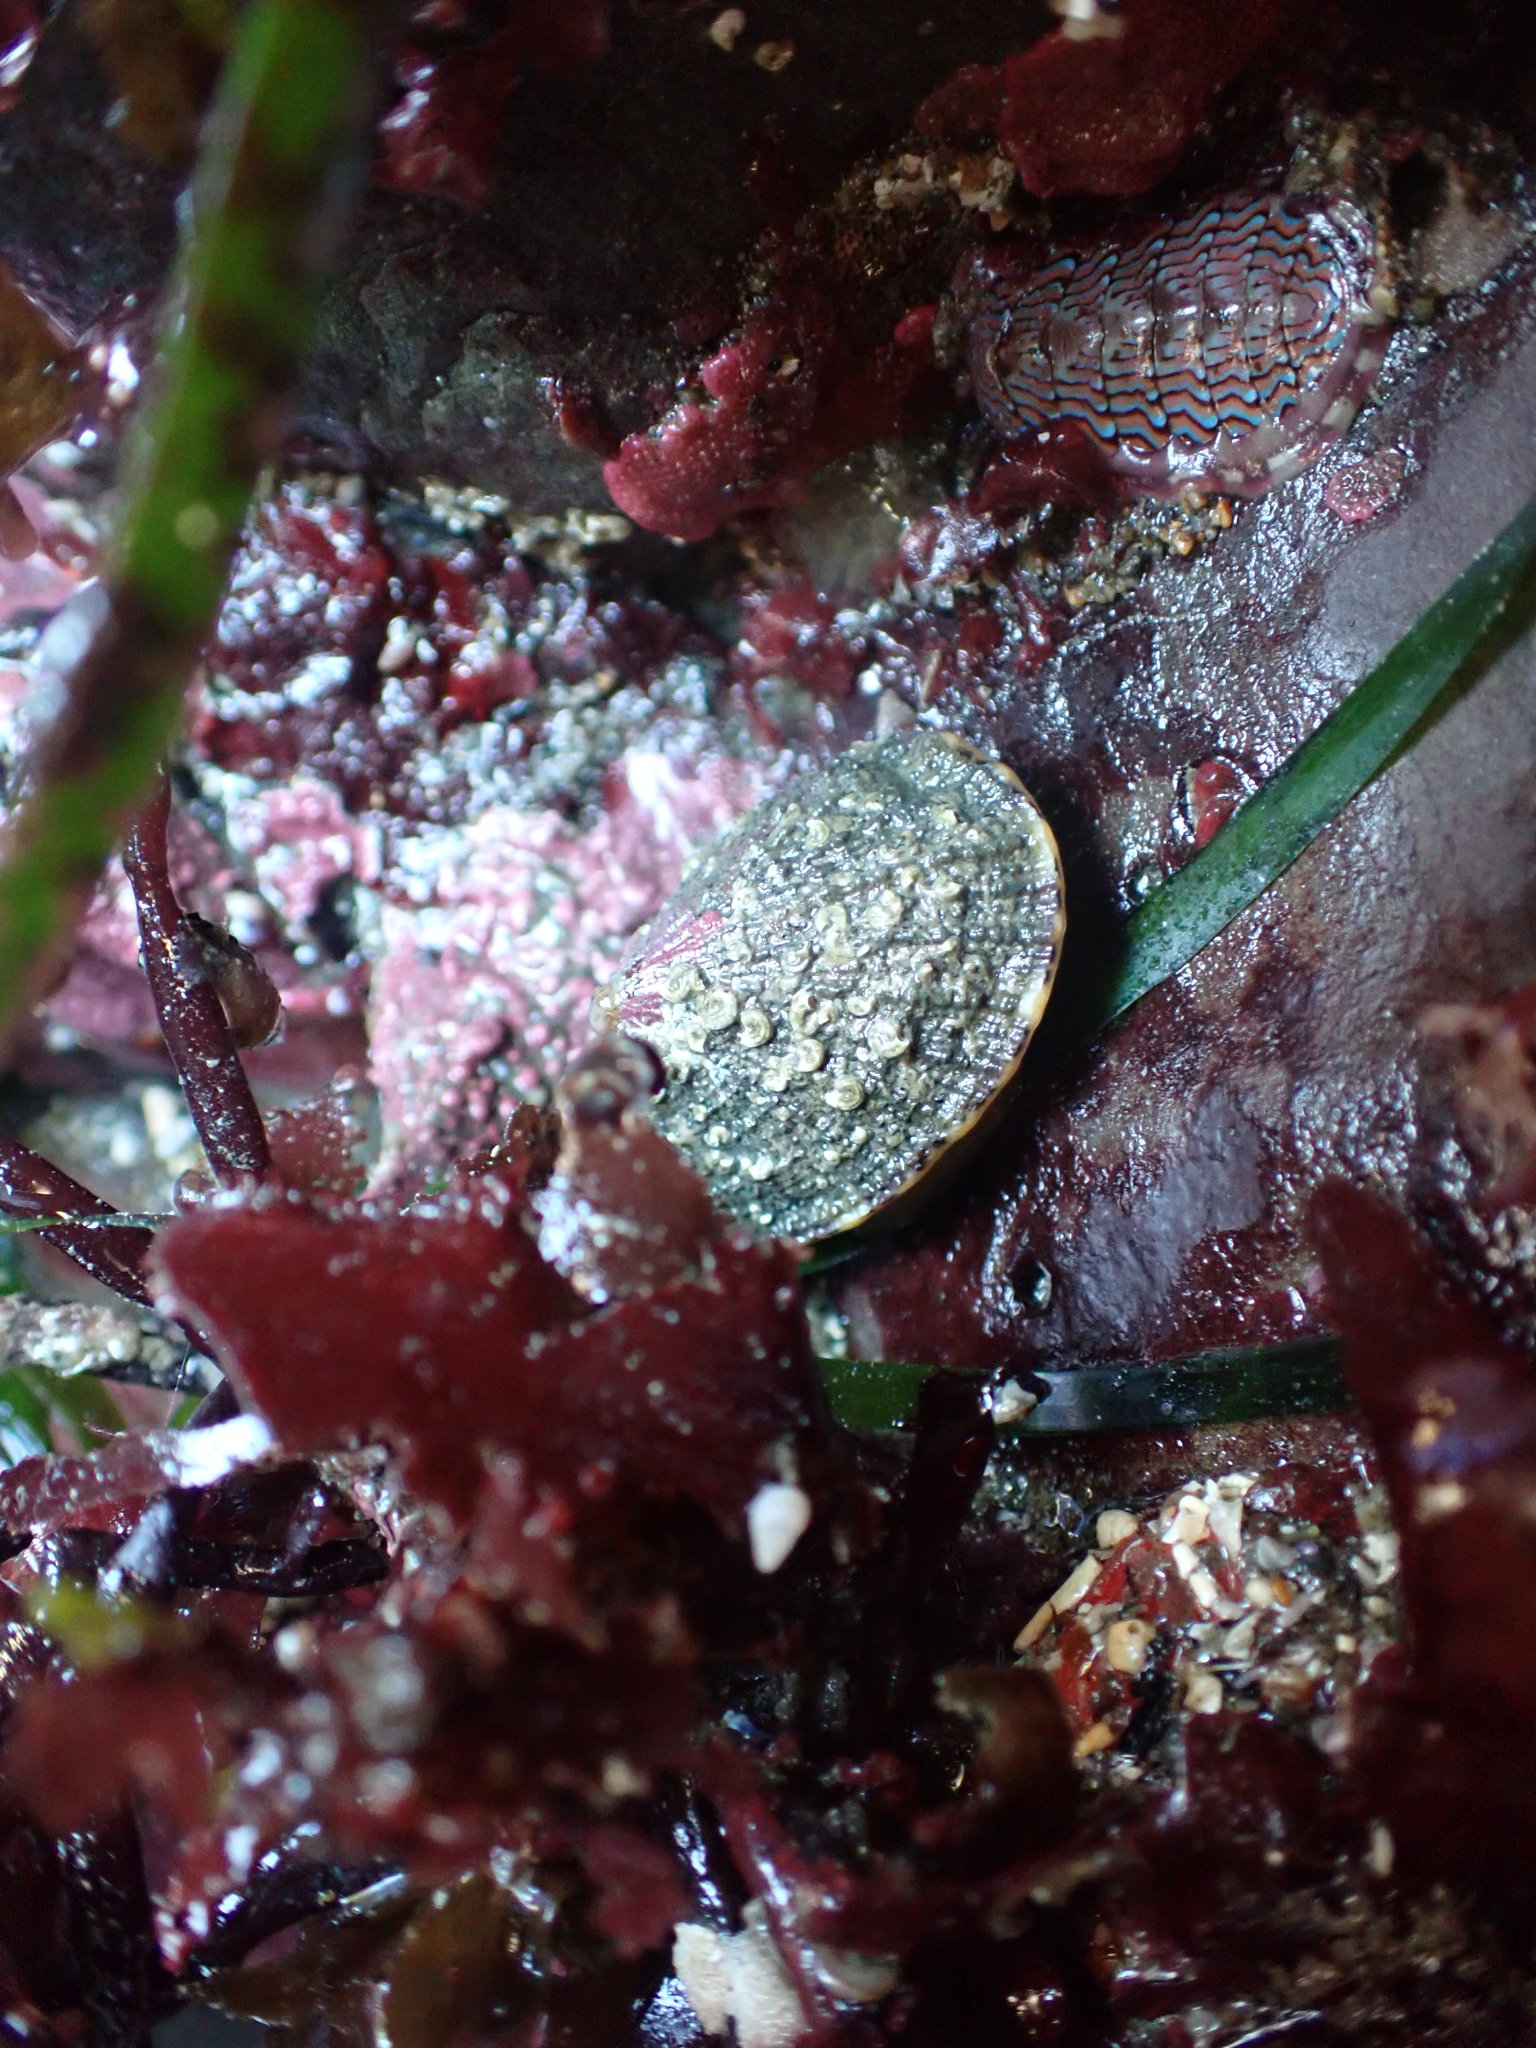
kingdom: Animalia
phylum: Mollusca
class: Gastropoda
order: Lepetellida
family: Fissurellidae
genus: Diodora
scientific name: Diodora aspera
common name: Rough keyhole limpet
